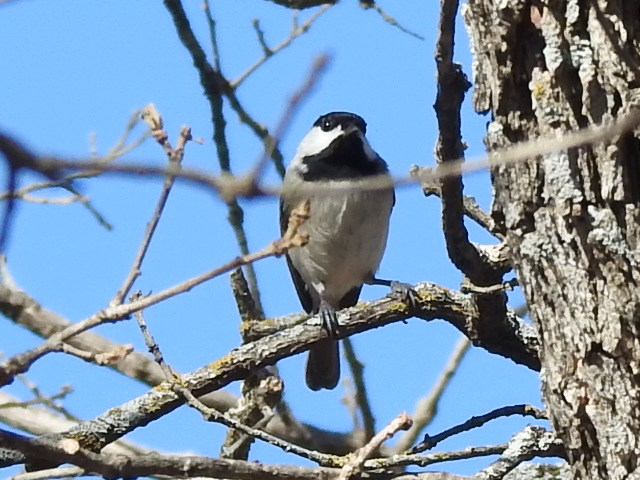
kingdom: Animalia
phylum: Chordata
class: Aves
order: Passeriformes
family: Paridae
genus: Poecile
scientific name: Poecile carolinensis
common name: Carolina chickadee
